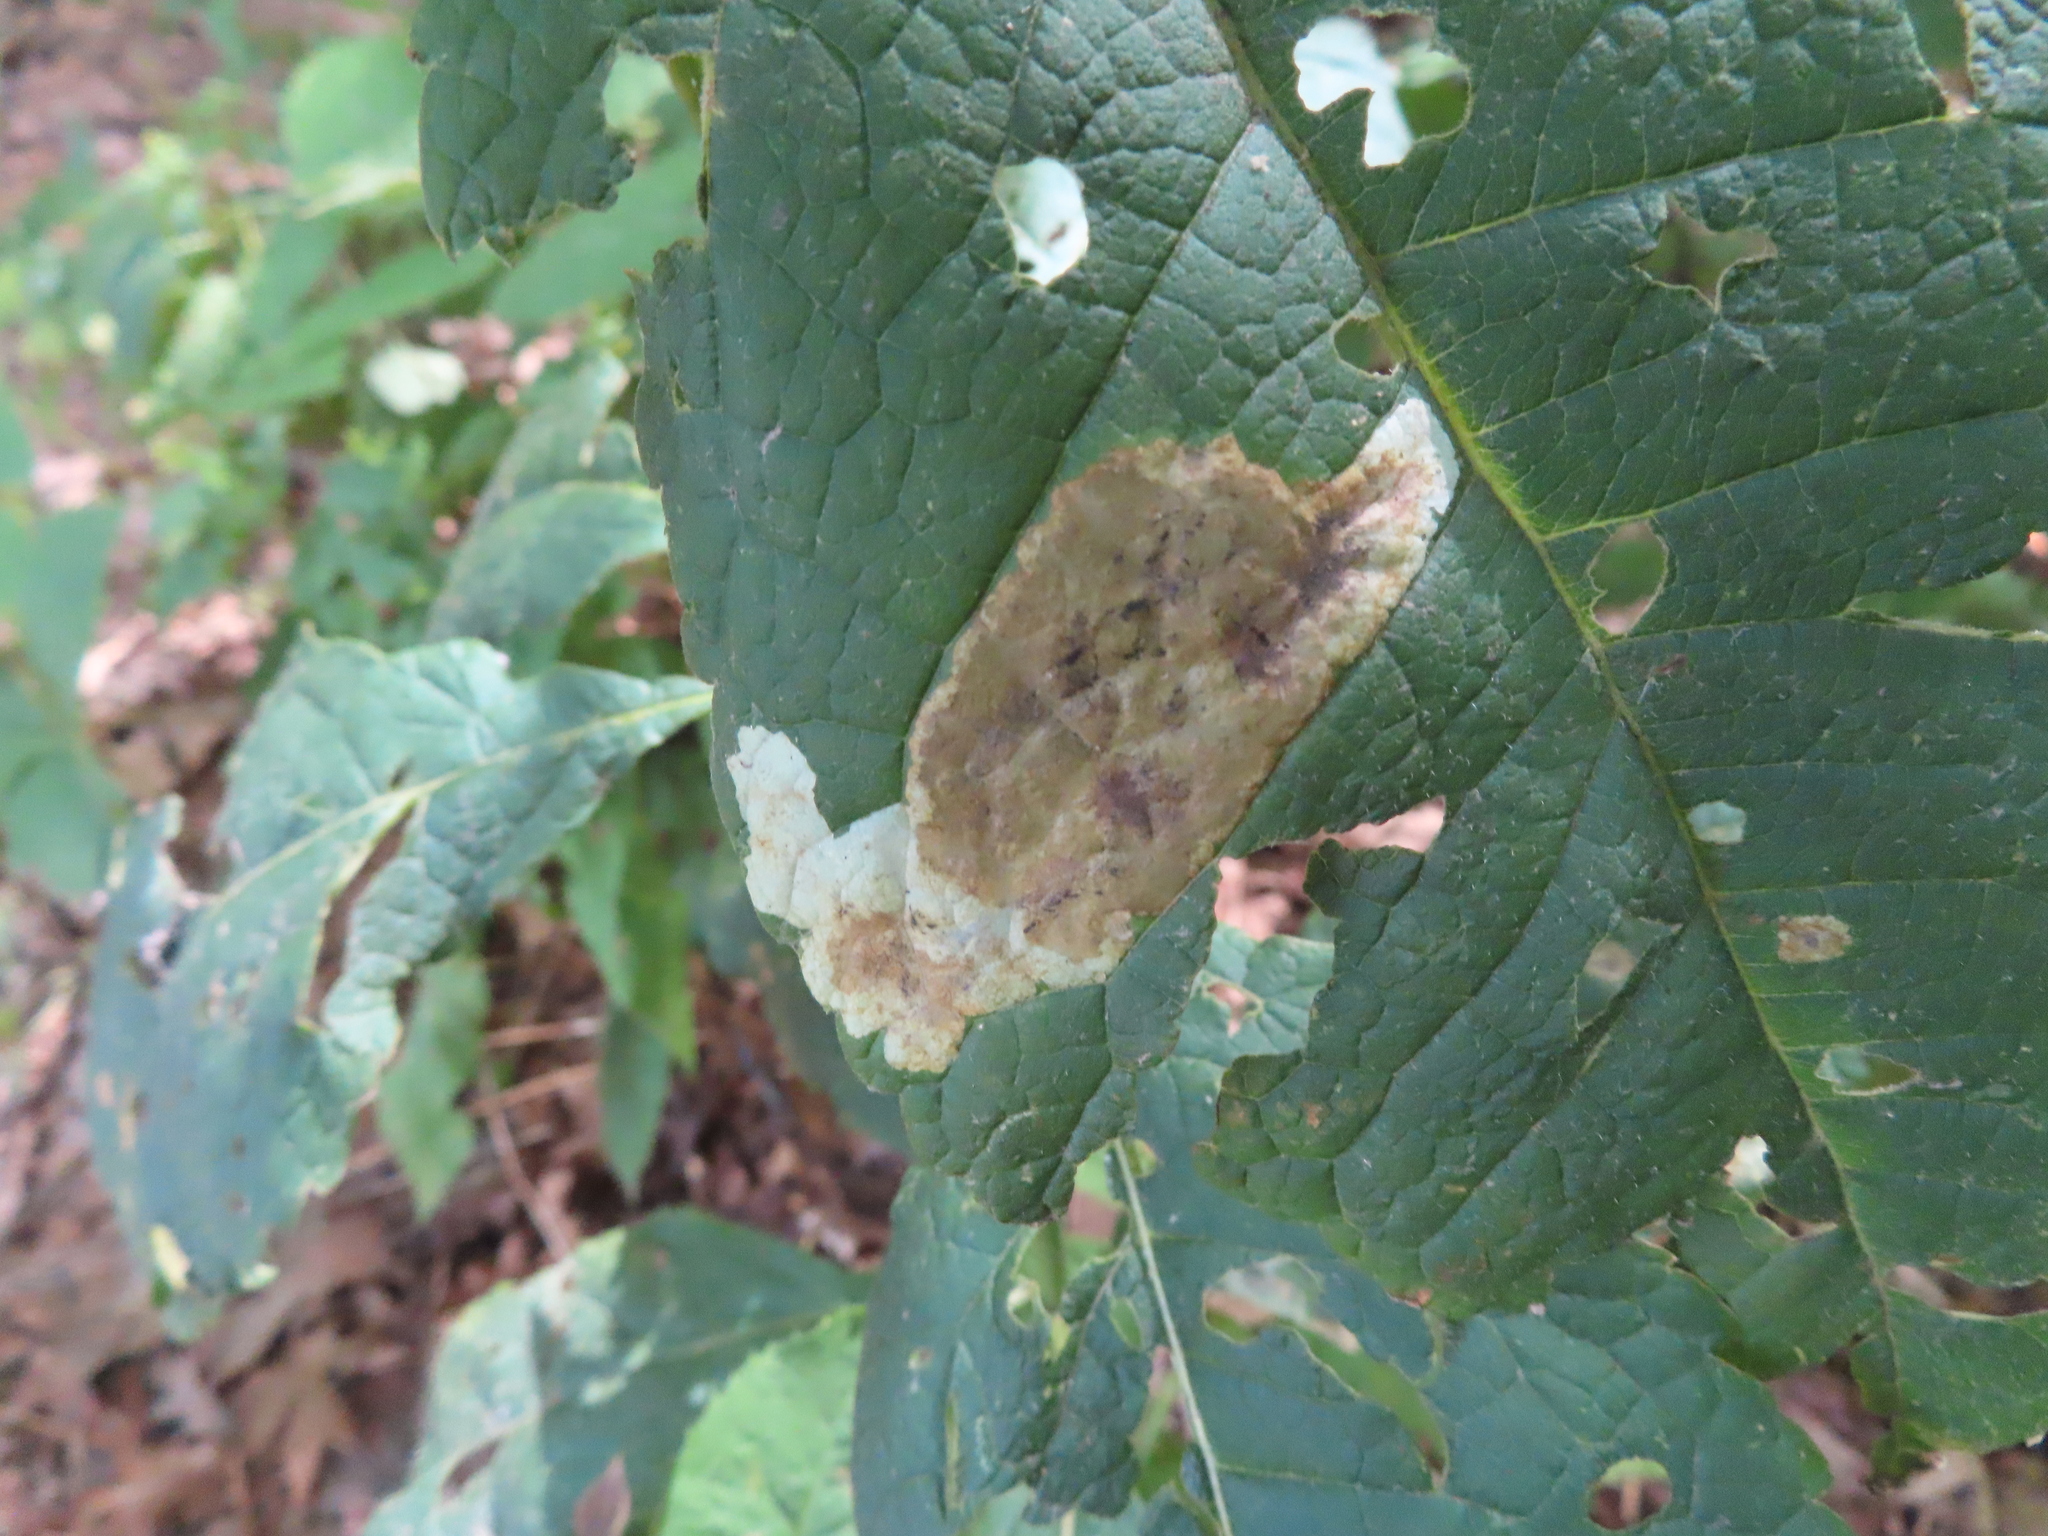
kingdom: Animalia
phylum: Arthropoda
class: Insecta
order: Diptera
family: Agromyzidae
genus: Calycomyza
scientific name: Calycomyza flavinotum
